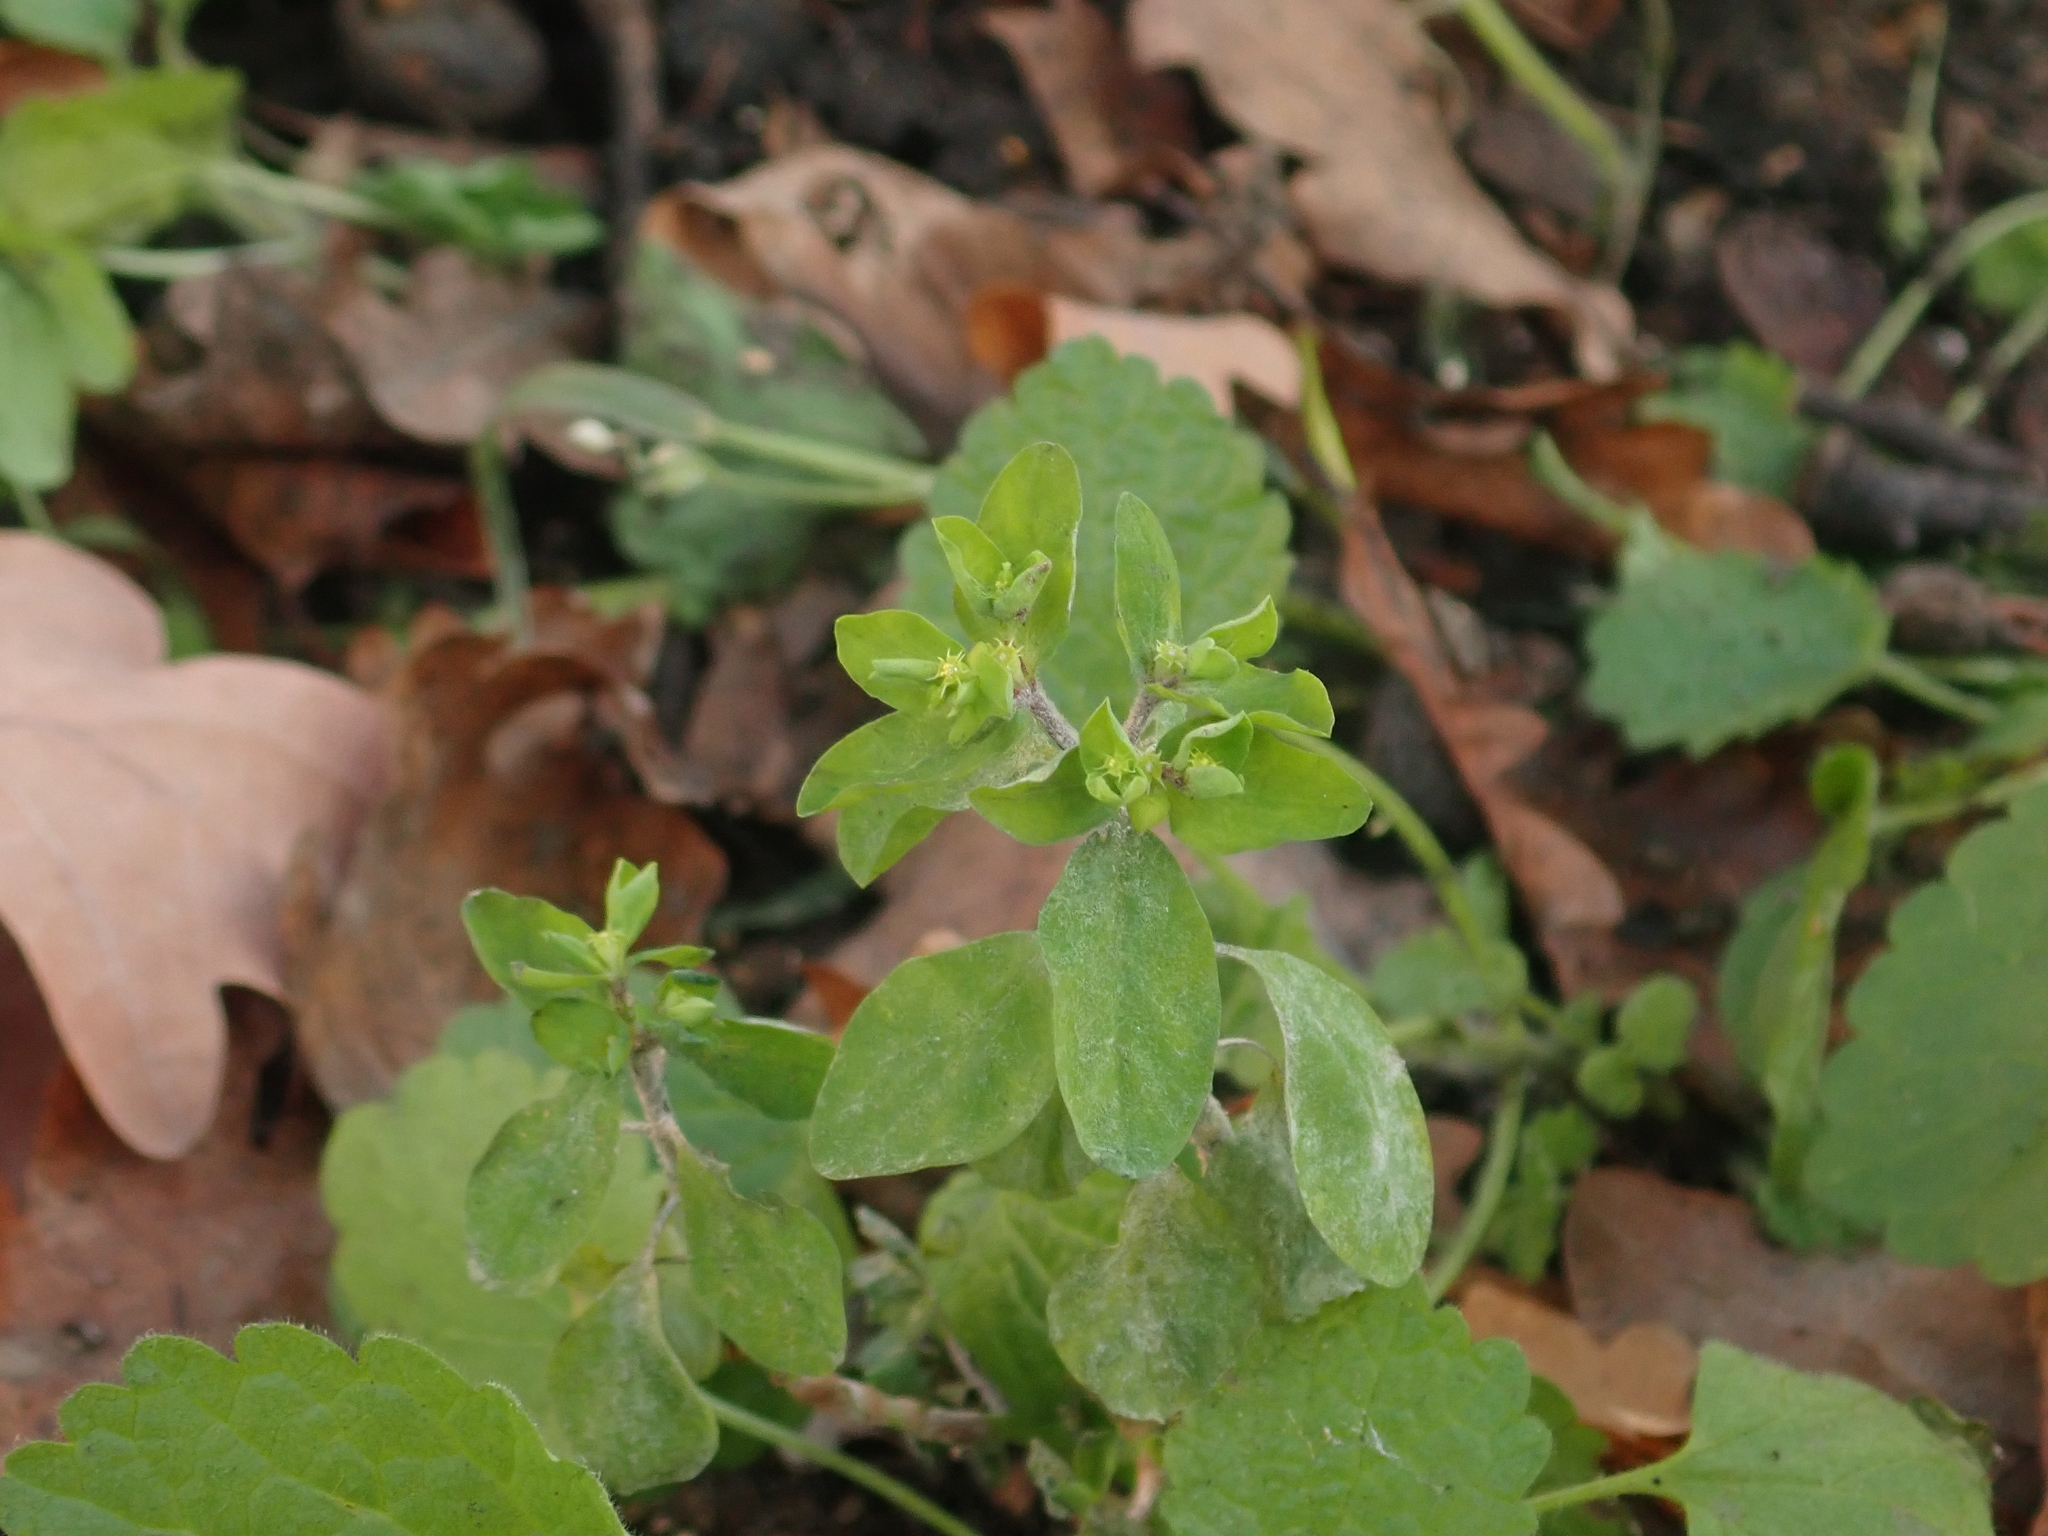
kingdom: Plantae
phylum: Tracheophyta
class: Magnoliopsida
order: Malpighiales
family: Euphorbiaceae
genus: Euphorbia
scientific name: Euphorbia peplus
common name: Petty spurge
